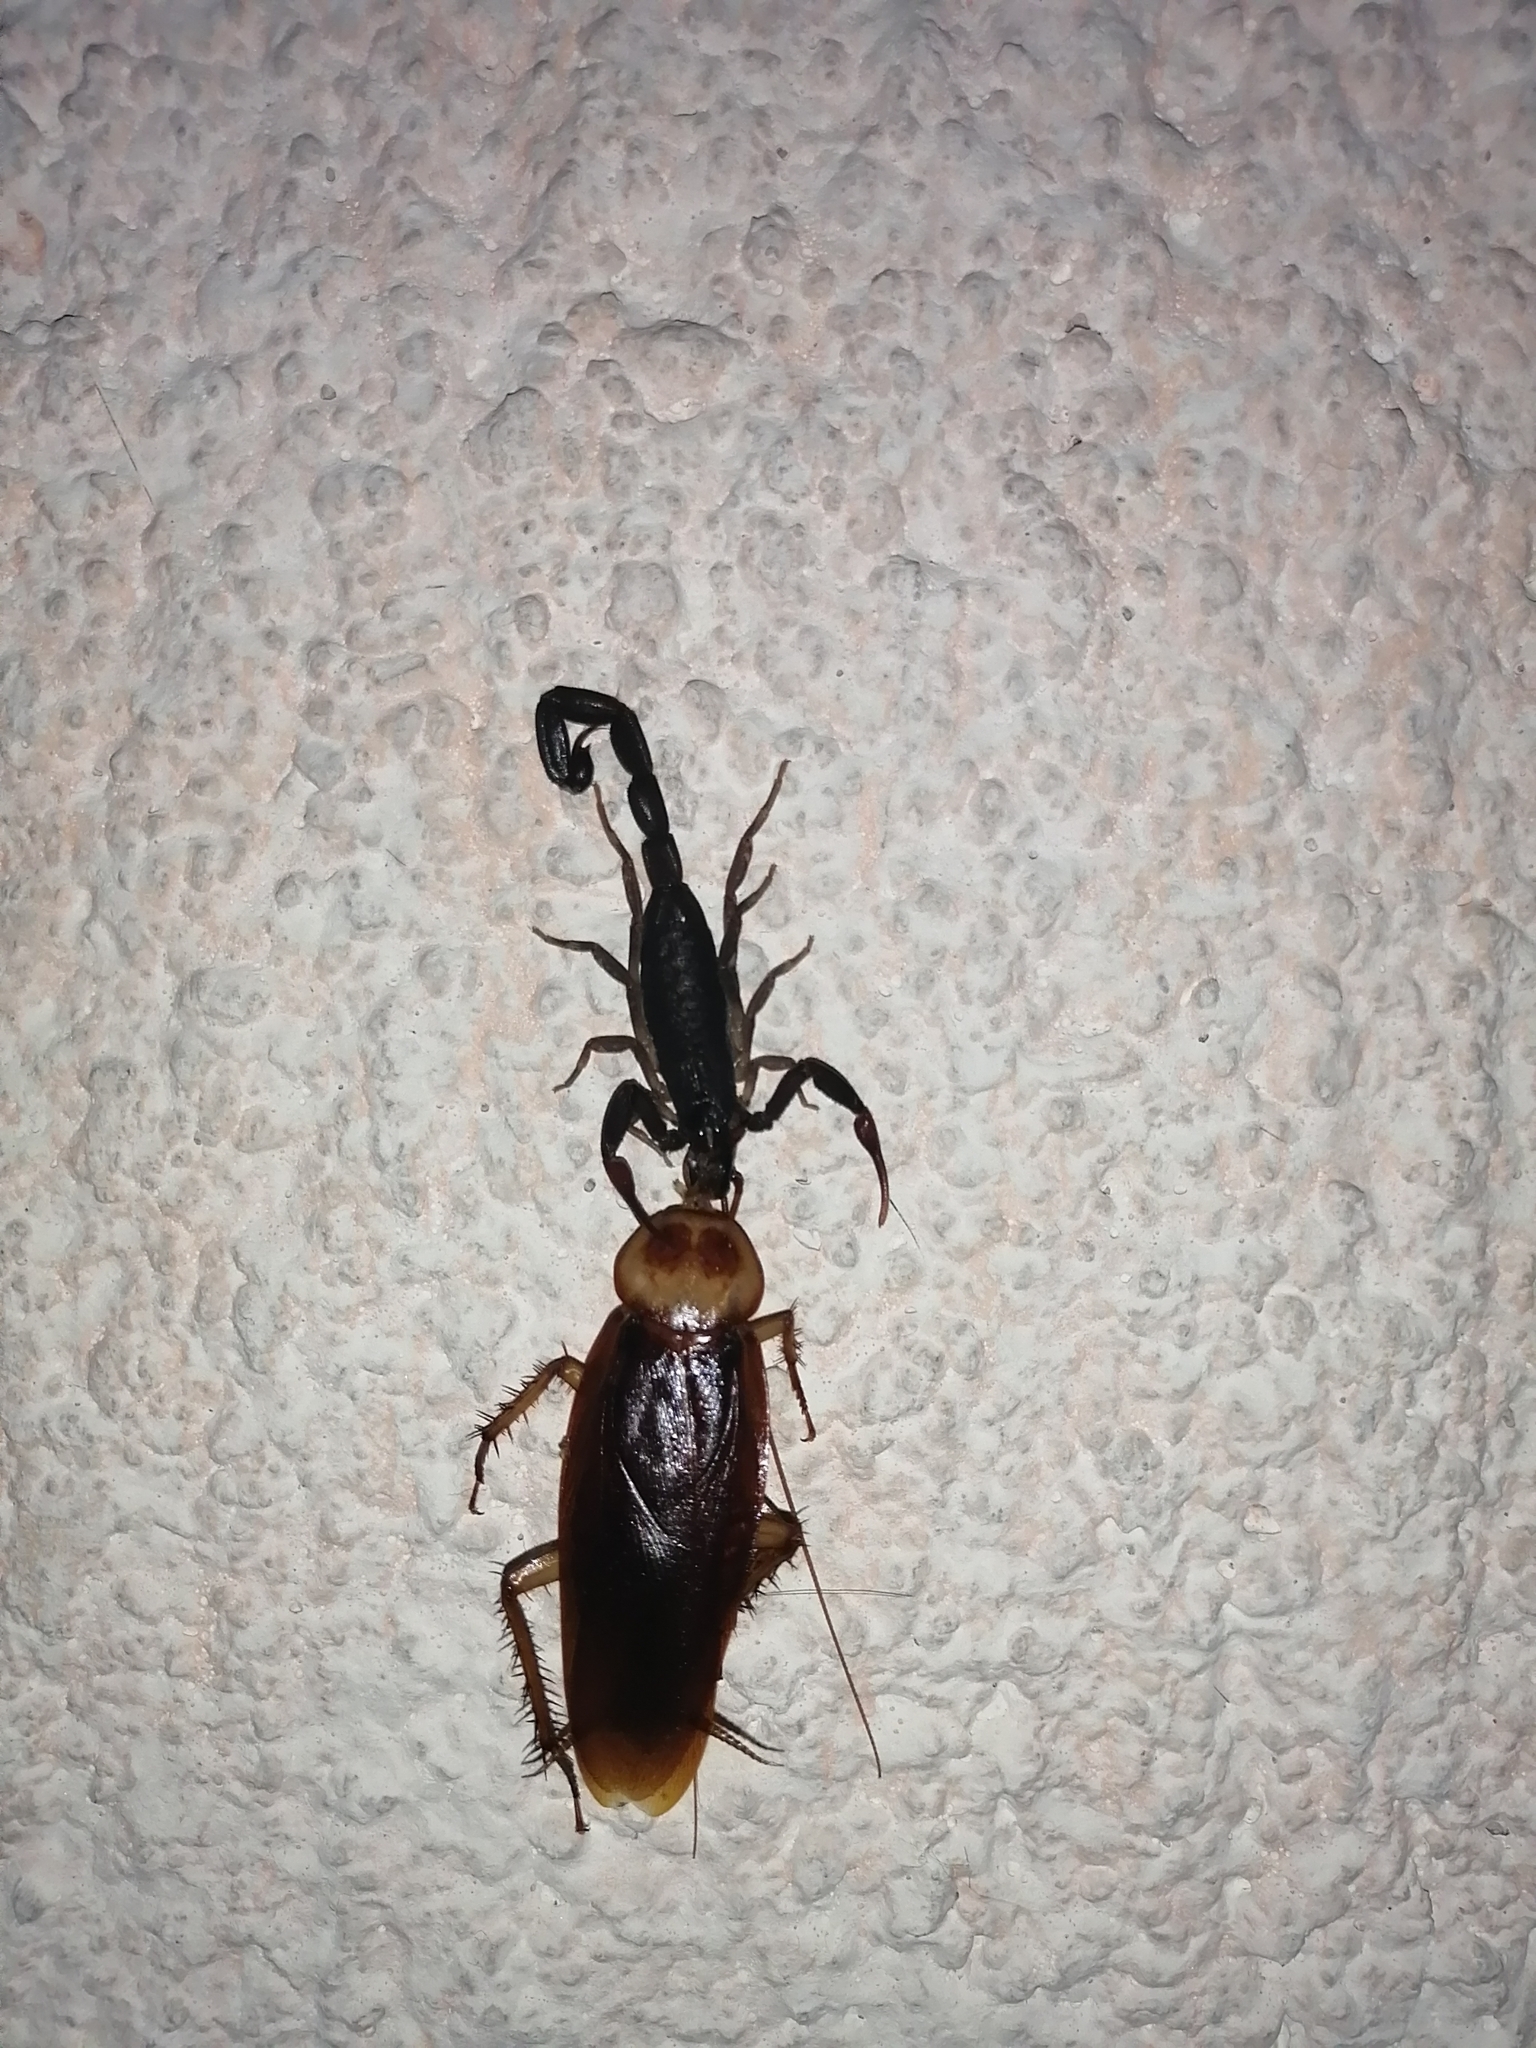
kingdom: Animalia
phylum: Arthropoda
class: Insecta
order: Blattodea
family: Blattidae
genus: Periplaneta
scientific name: Periplaneta americana
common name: American cockroach
